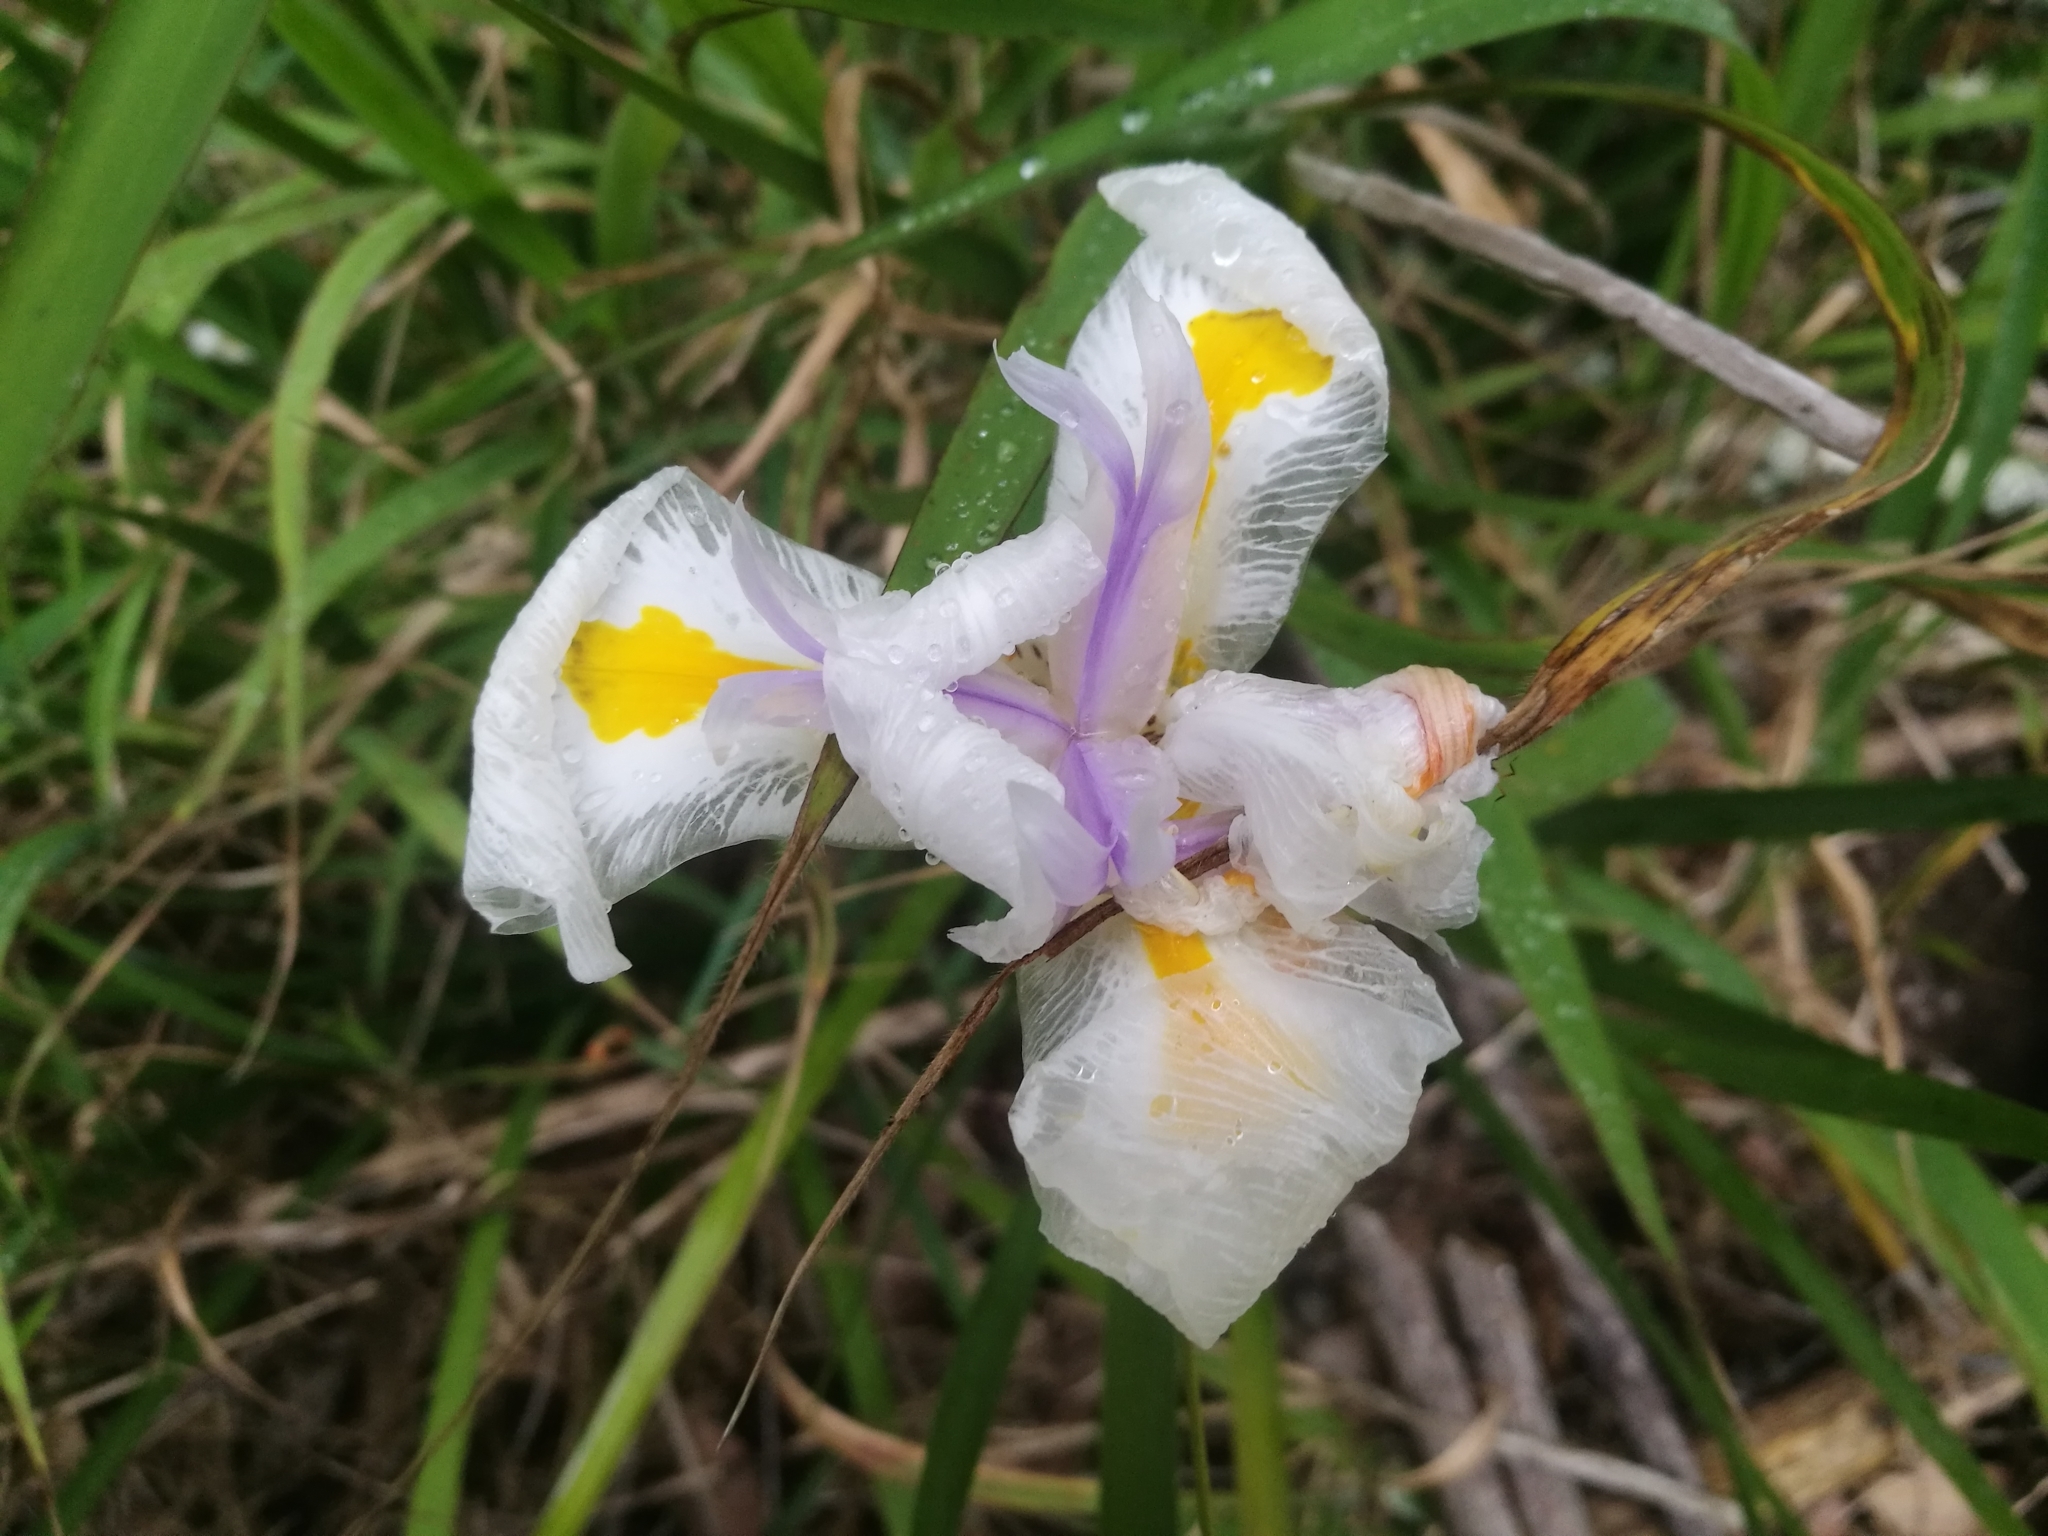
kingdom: Plantae
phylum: Tracheophyta
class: Liliopsida
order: Asparagales
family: Iridaceae
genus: Dietes
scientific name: Dietes grandiflora
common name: Wild iris
